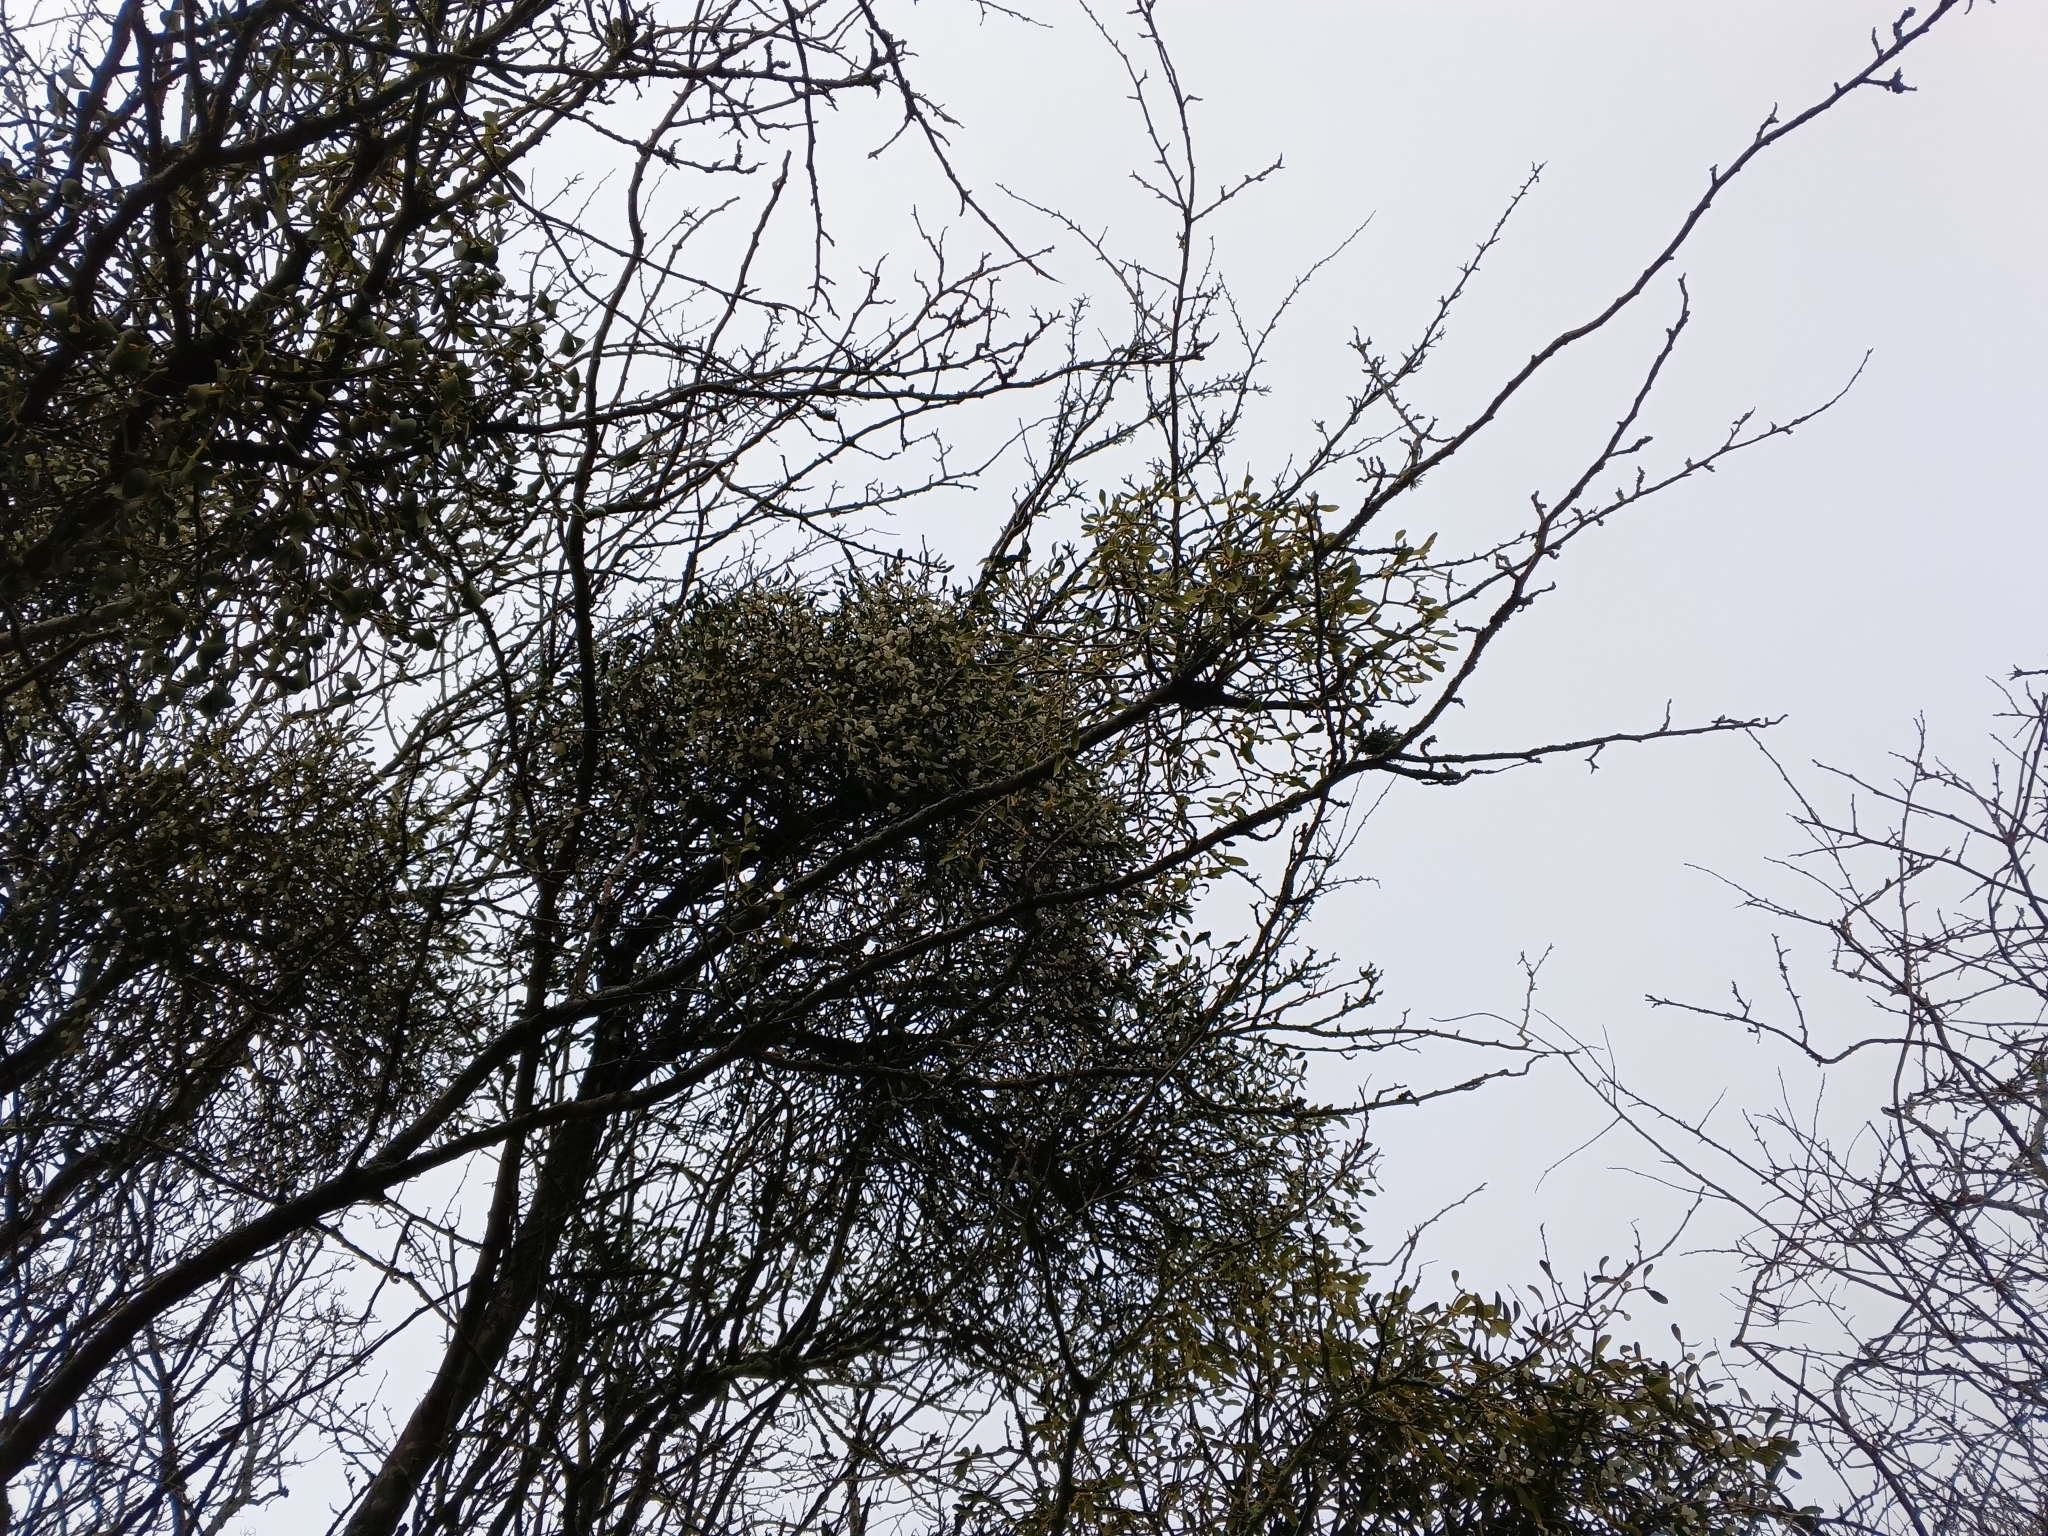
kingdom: Plantae
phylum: Tracheophyta
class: Magnoliopsida
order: Santalales
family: Viscaceae
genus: Viscum
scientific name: Viscum album
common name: Mistletoe
